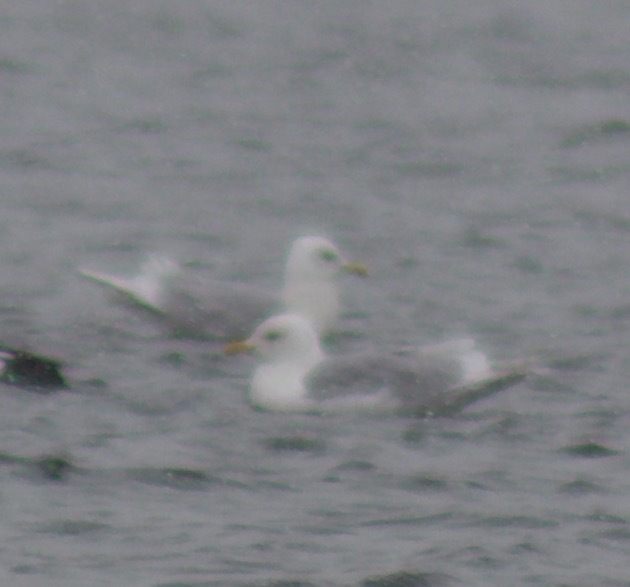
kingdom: Animalia
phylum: Chordata
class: Aves
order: Charadriiformes
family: Laridae
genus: Larus
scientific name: Larus glaucoides
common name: Iceland gull
